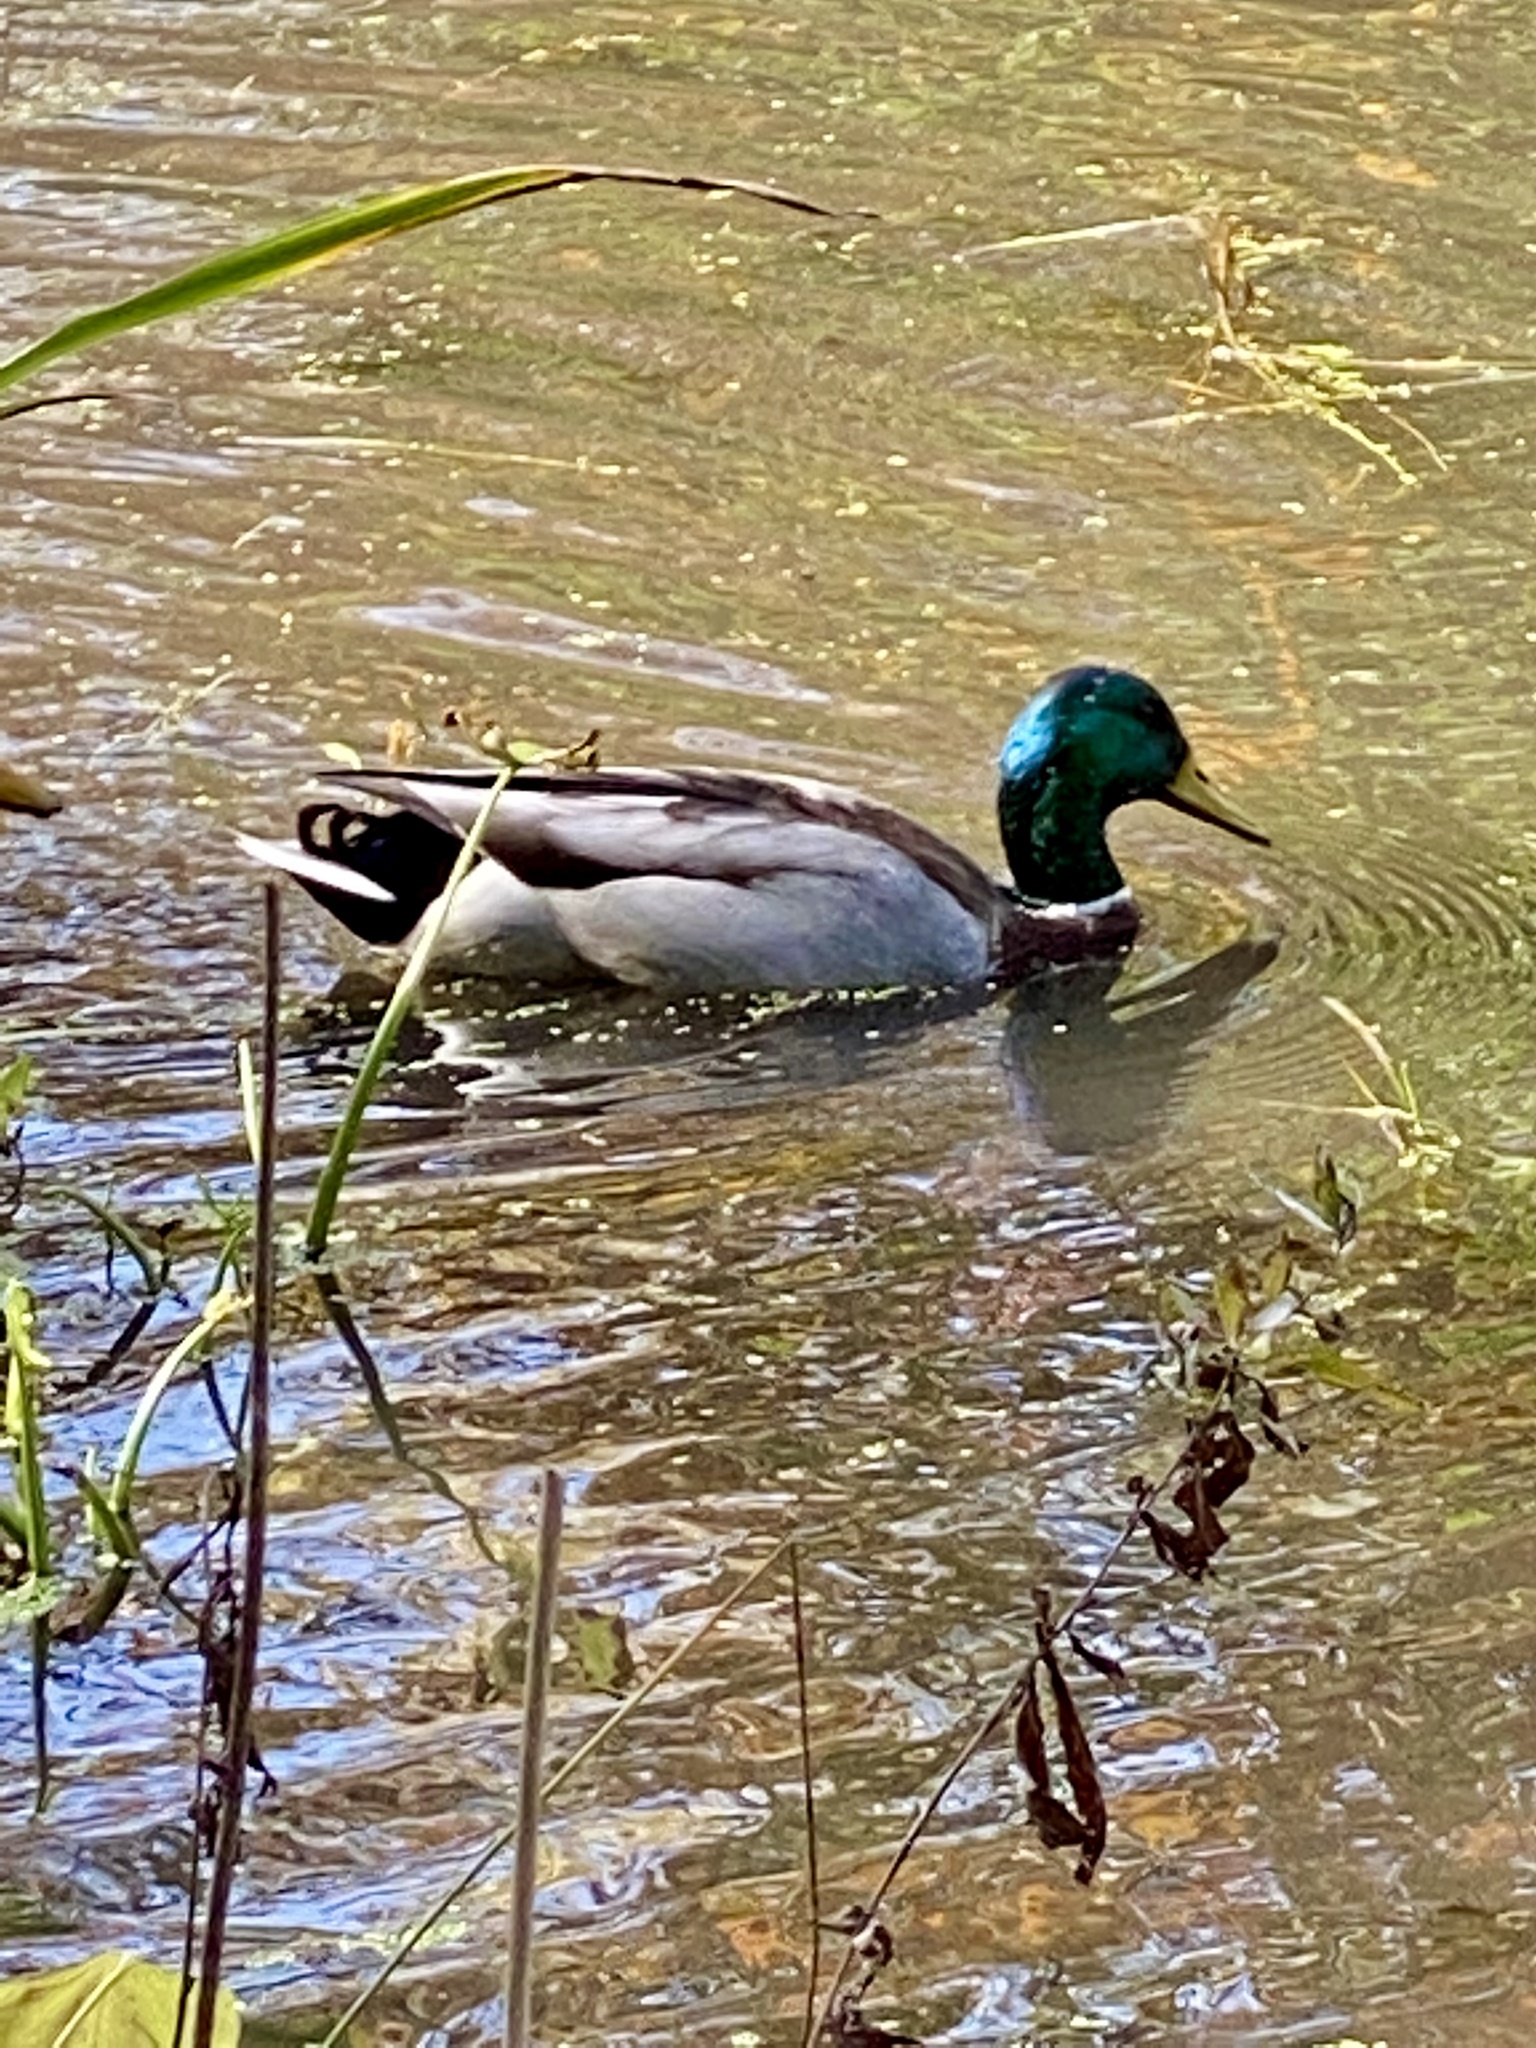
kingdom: Animalia
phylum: Chordata
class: Aves
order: Anseriformes
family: Anatidae
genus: Anas
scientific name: Anas platyrhynchos
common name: Mallard
